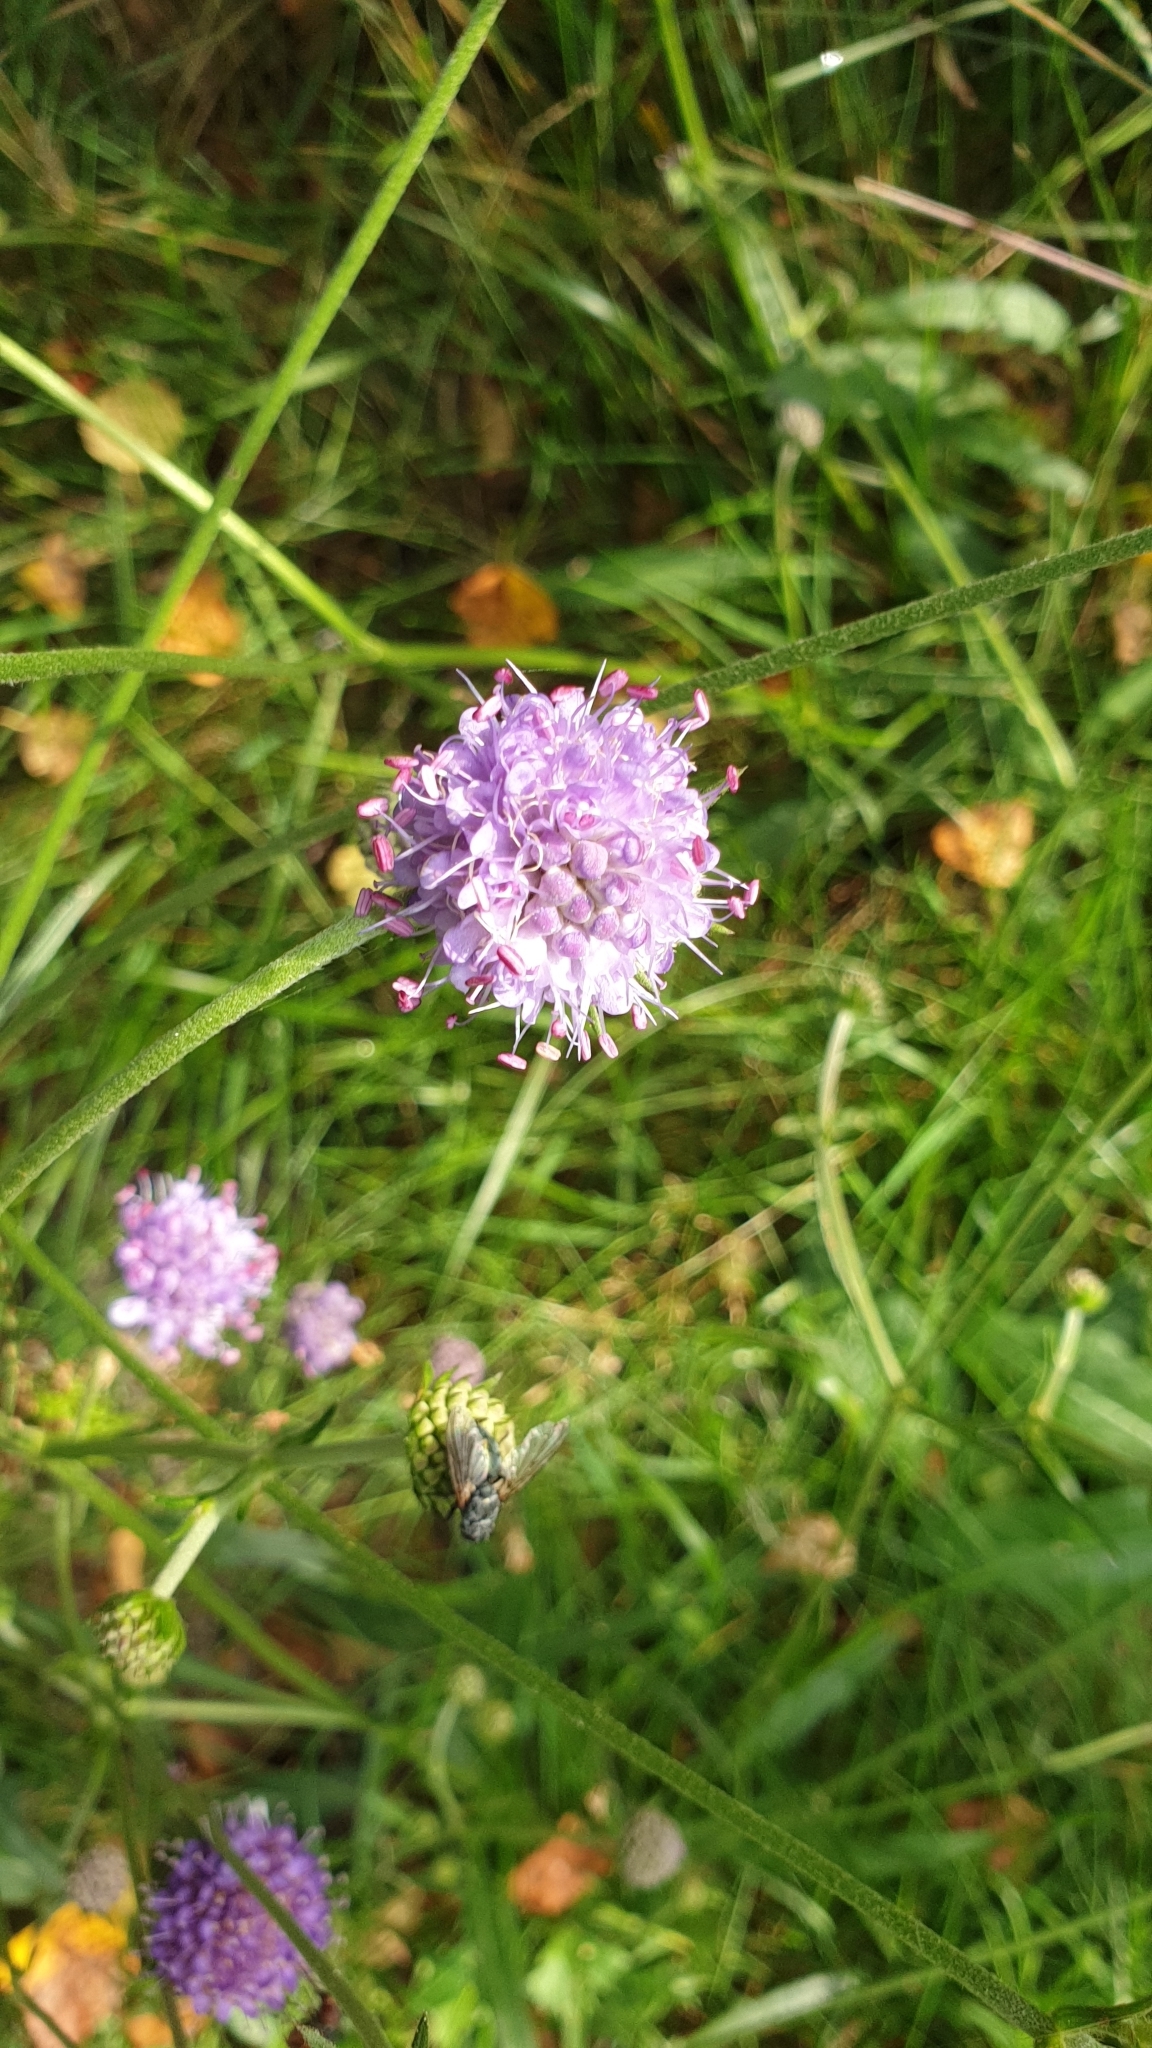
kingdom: Plantae
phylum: Tracheophyta
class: Magnoliopsida
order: Dipsacales
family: Caprifoliaceae
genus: Succisa
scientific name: Succisa pratensis
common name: Devil's-bit
